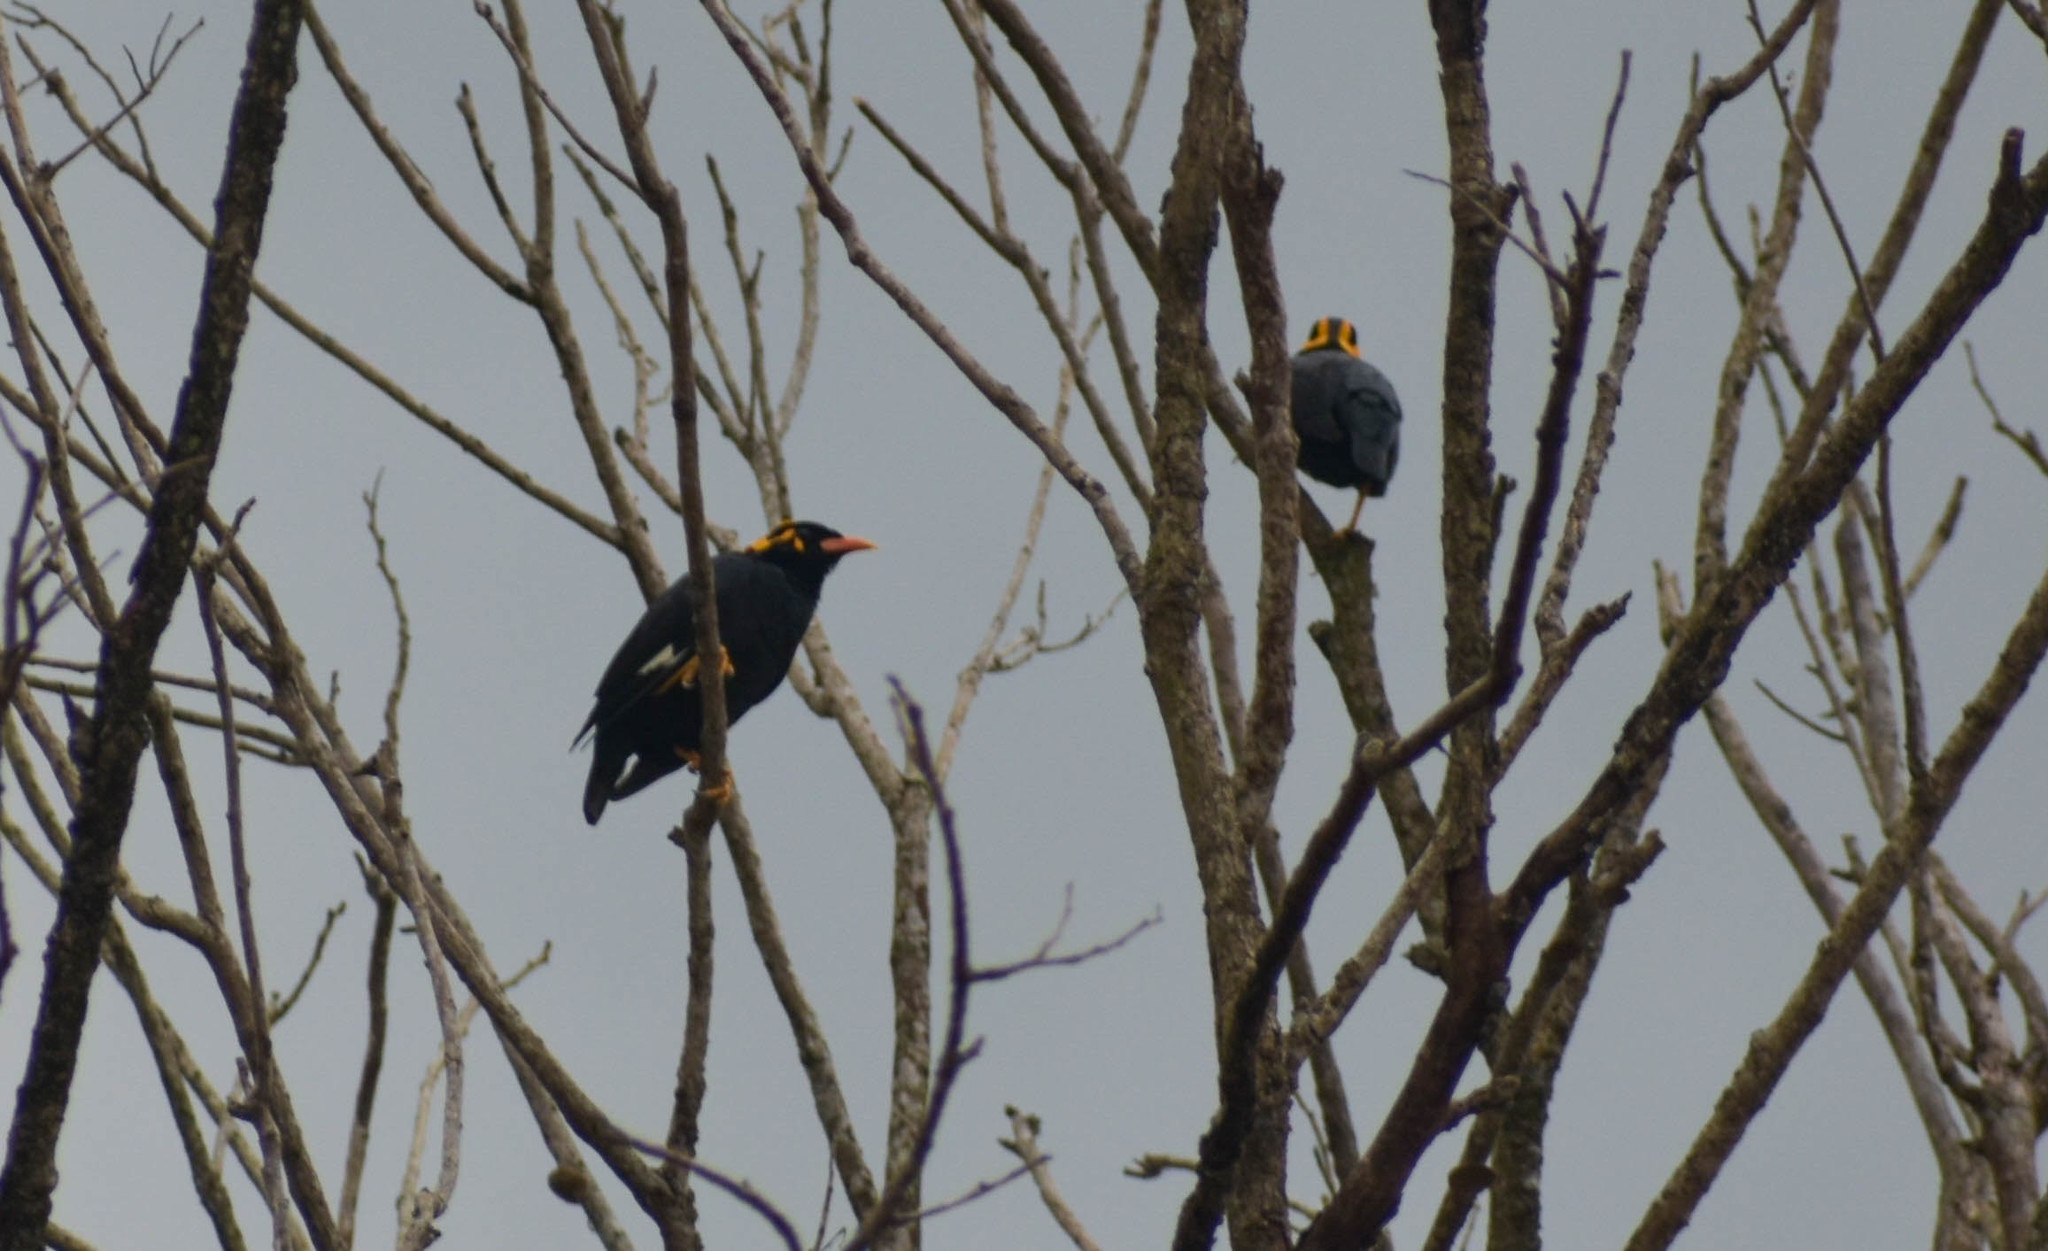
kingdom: Animalia
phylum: Chordata
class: Aves
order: Passeriformes
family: Sturnidae
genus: Gracula
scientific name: Gracula indica
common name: Southern hill myna
